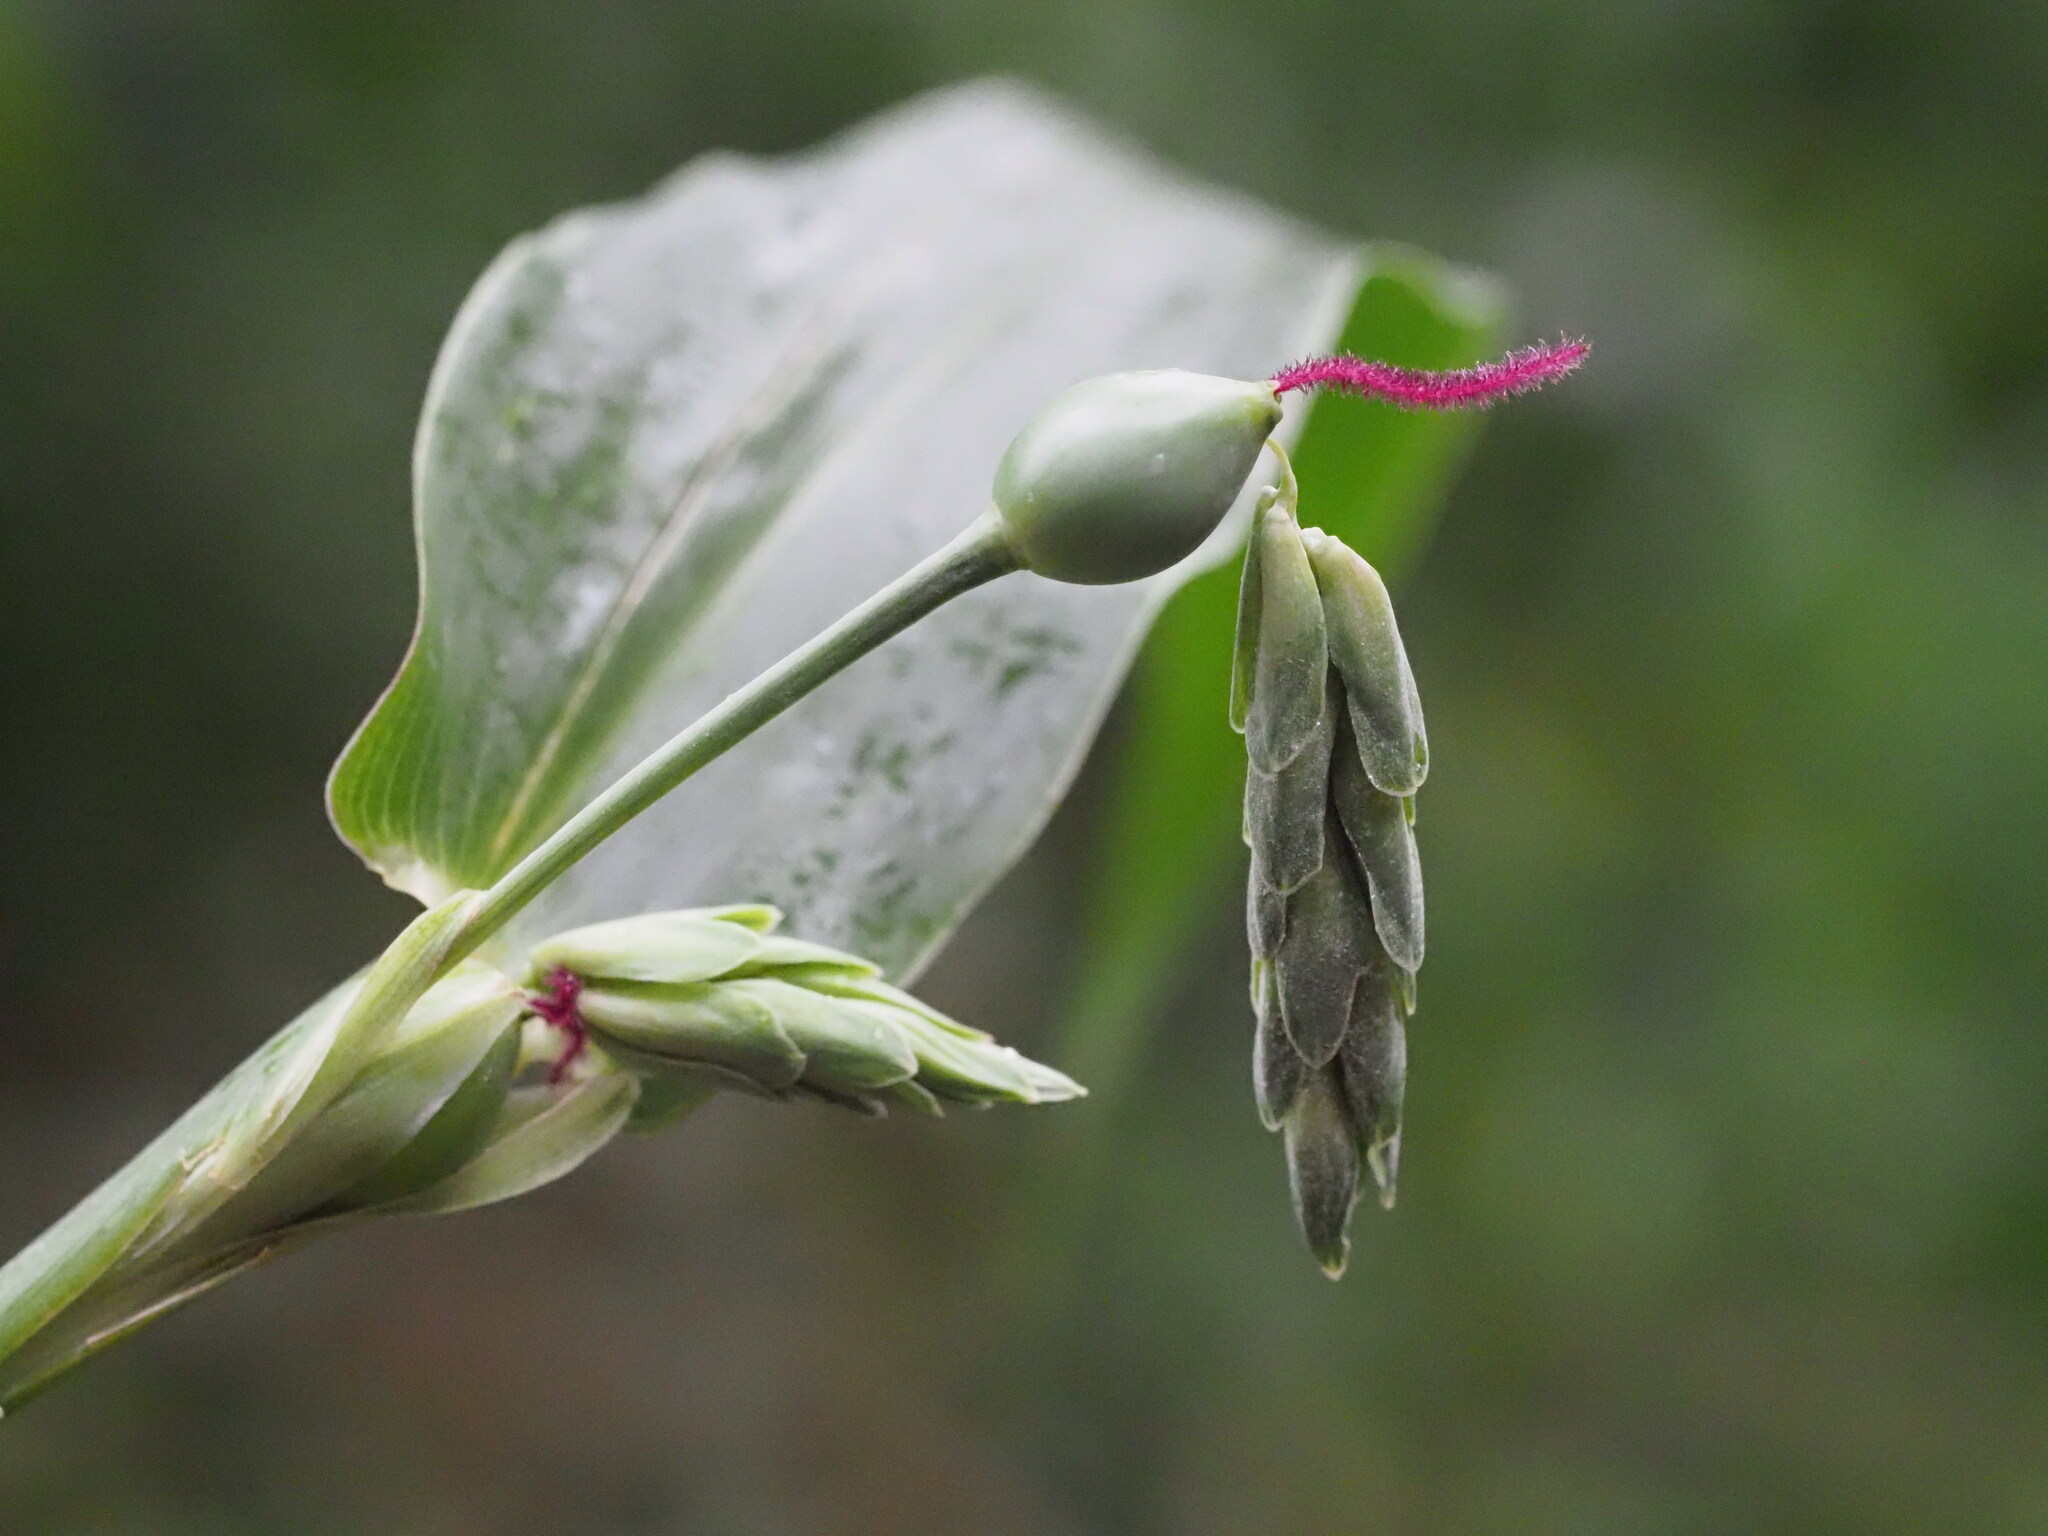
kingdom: Plantae
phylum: Tracheophyta
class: Liliopsida
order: Poales
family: Poaceae
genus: Coix
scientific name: Coix lacryma-jobi
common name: Job's tears
